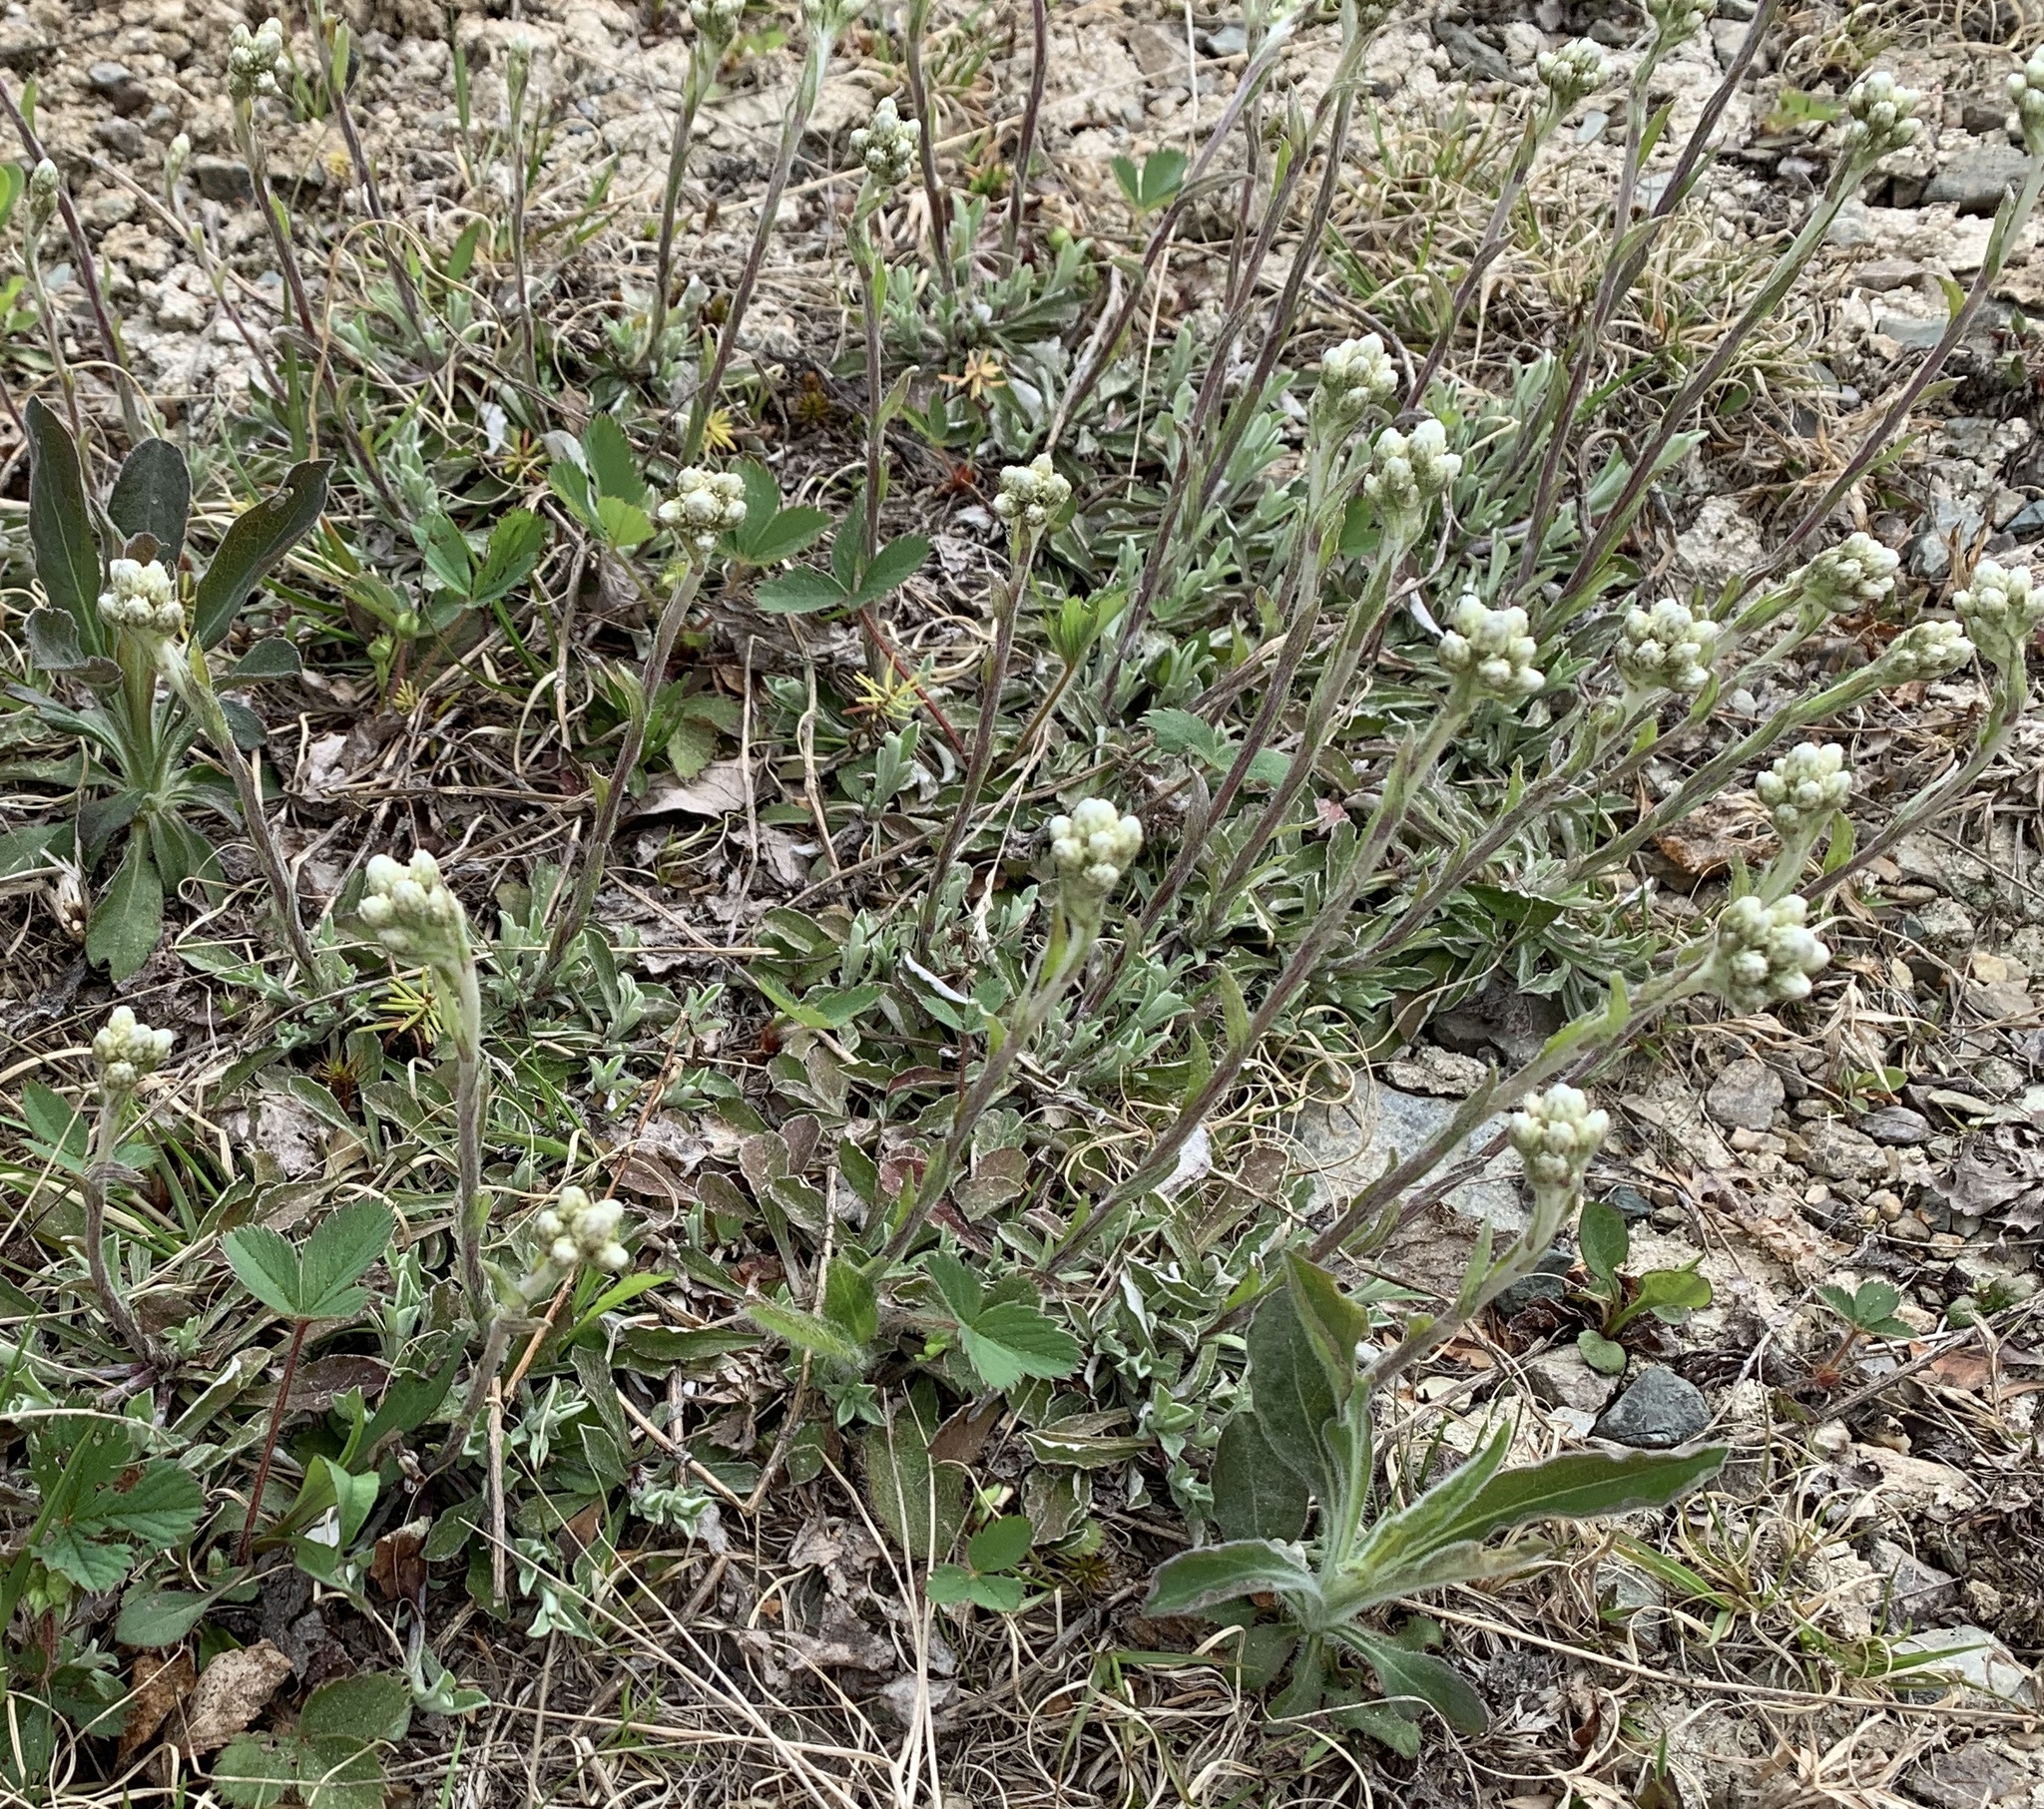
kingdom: Plantae
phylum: Tracheophyta
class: Magnoliopsida
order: Asterales
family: Asteraceae
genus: Antennaria
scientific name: Antennaria howellii
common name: Howell's pussytoes
